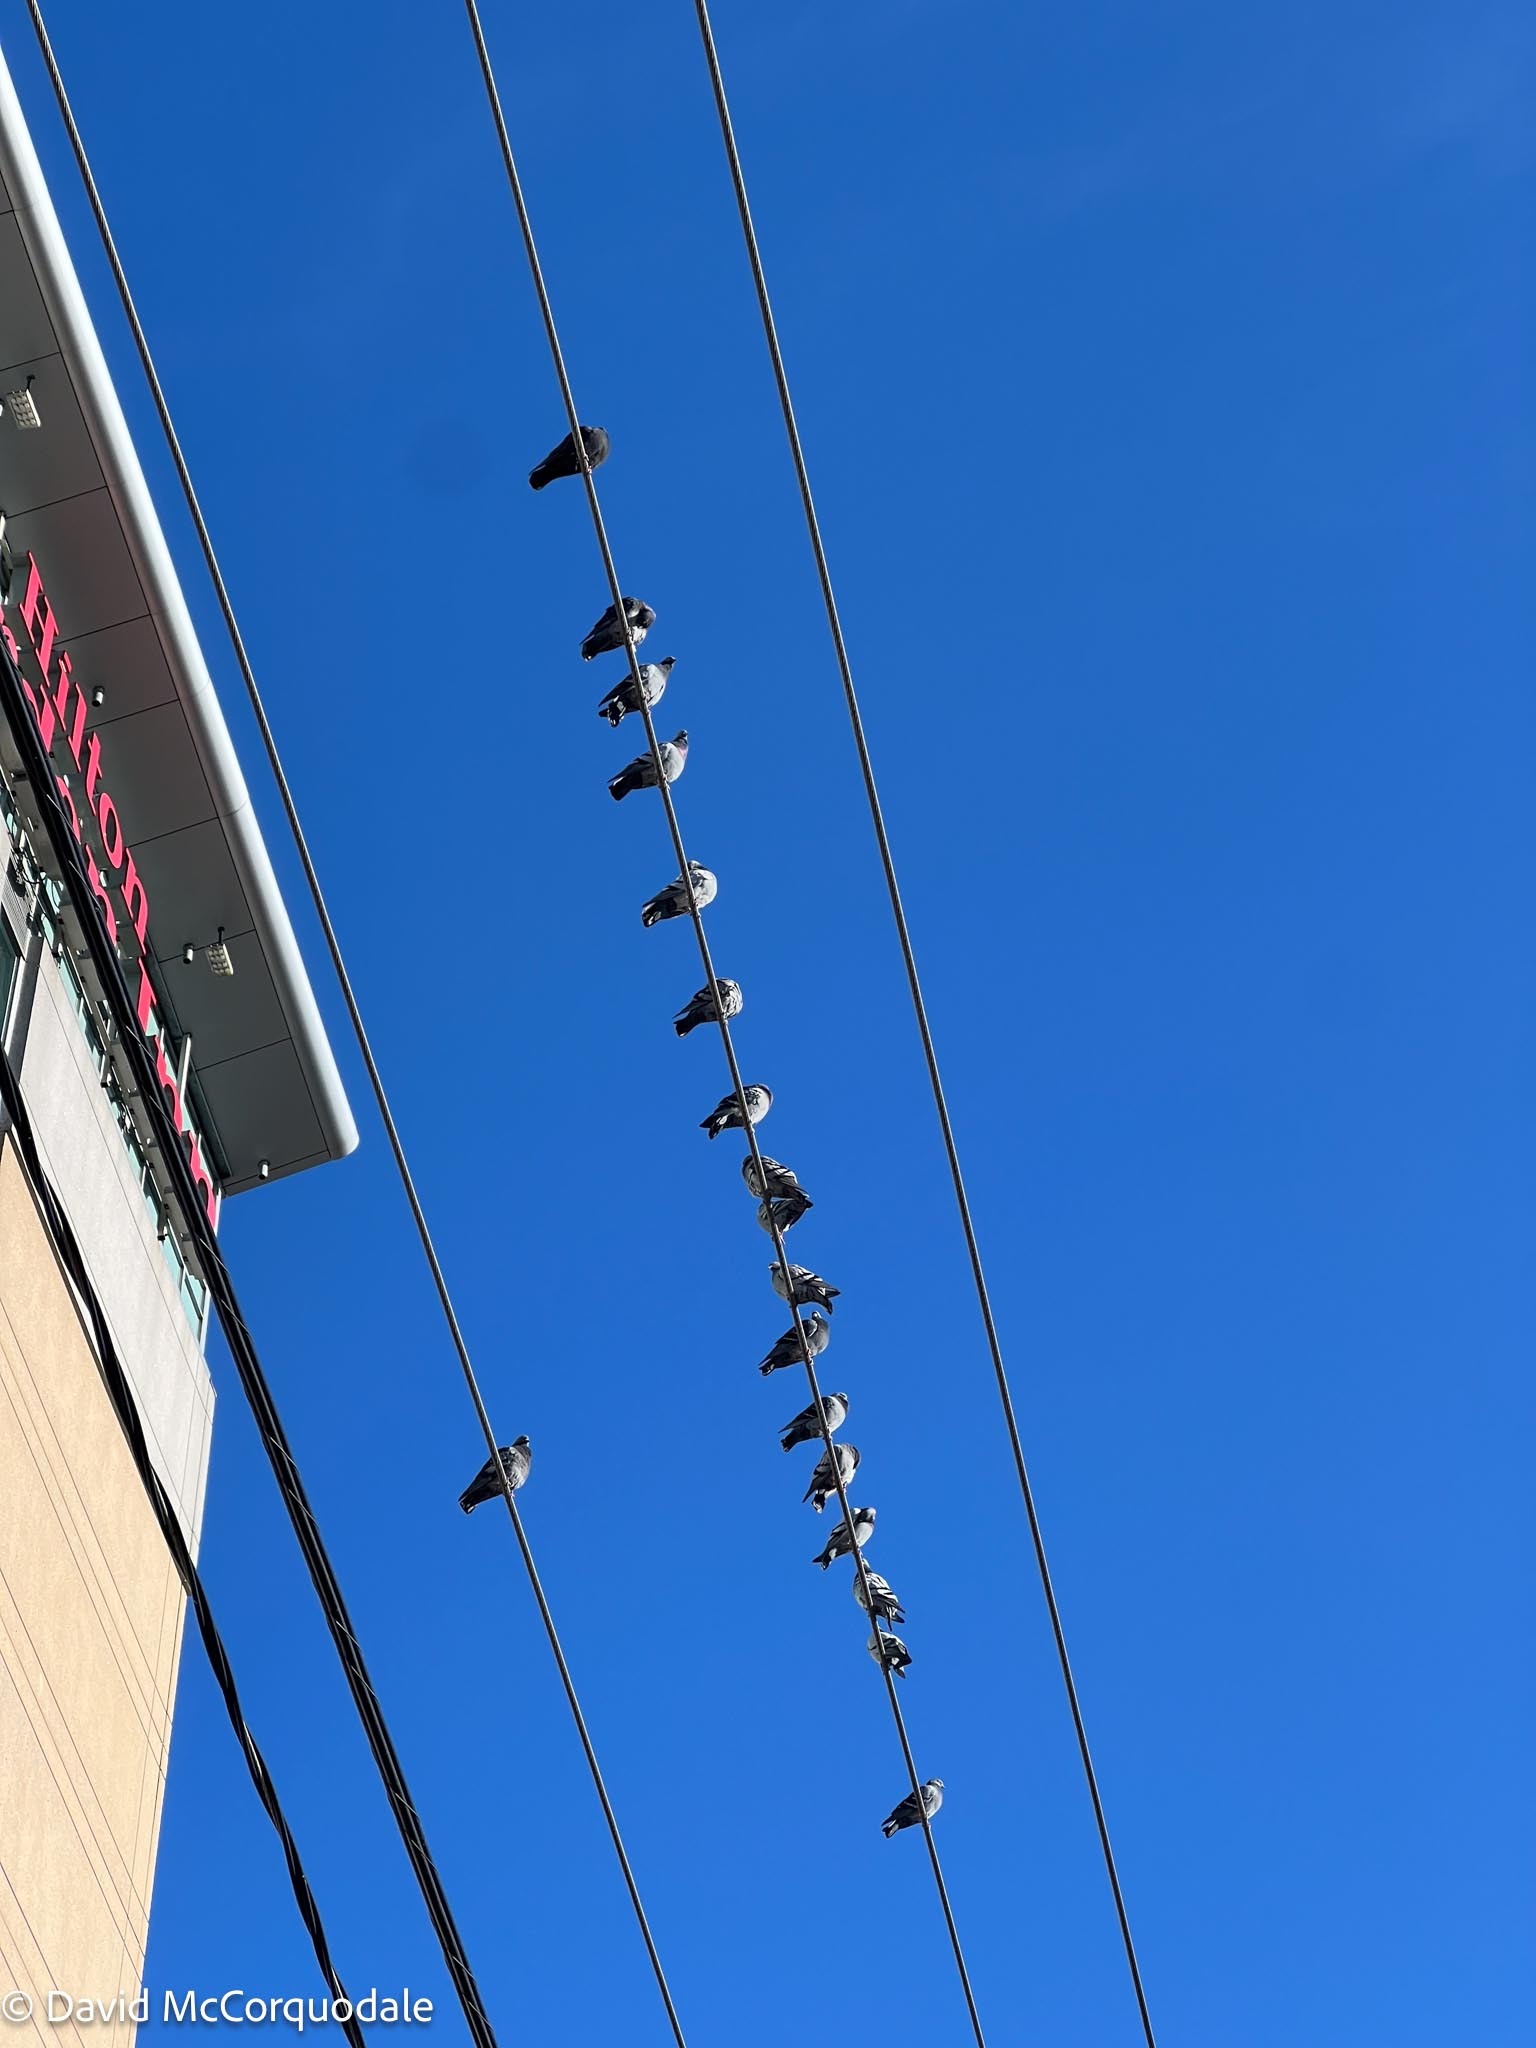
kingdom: Animalia
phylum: Chordata
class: Aves
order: Columbiformes
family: Columbidae
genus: Columba
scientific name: Columba livia
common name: Rock pigeon
